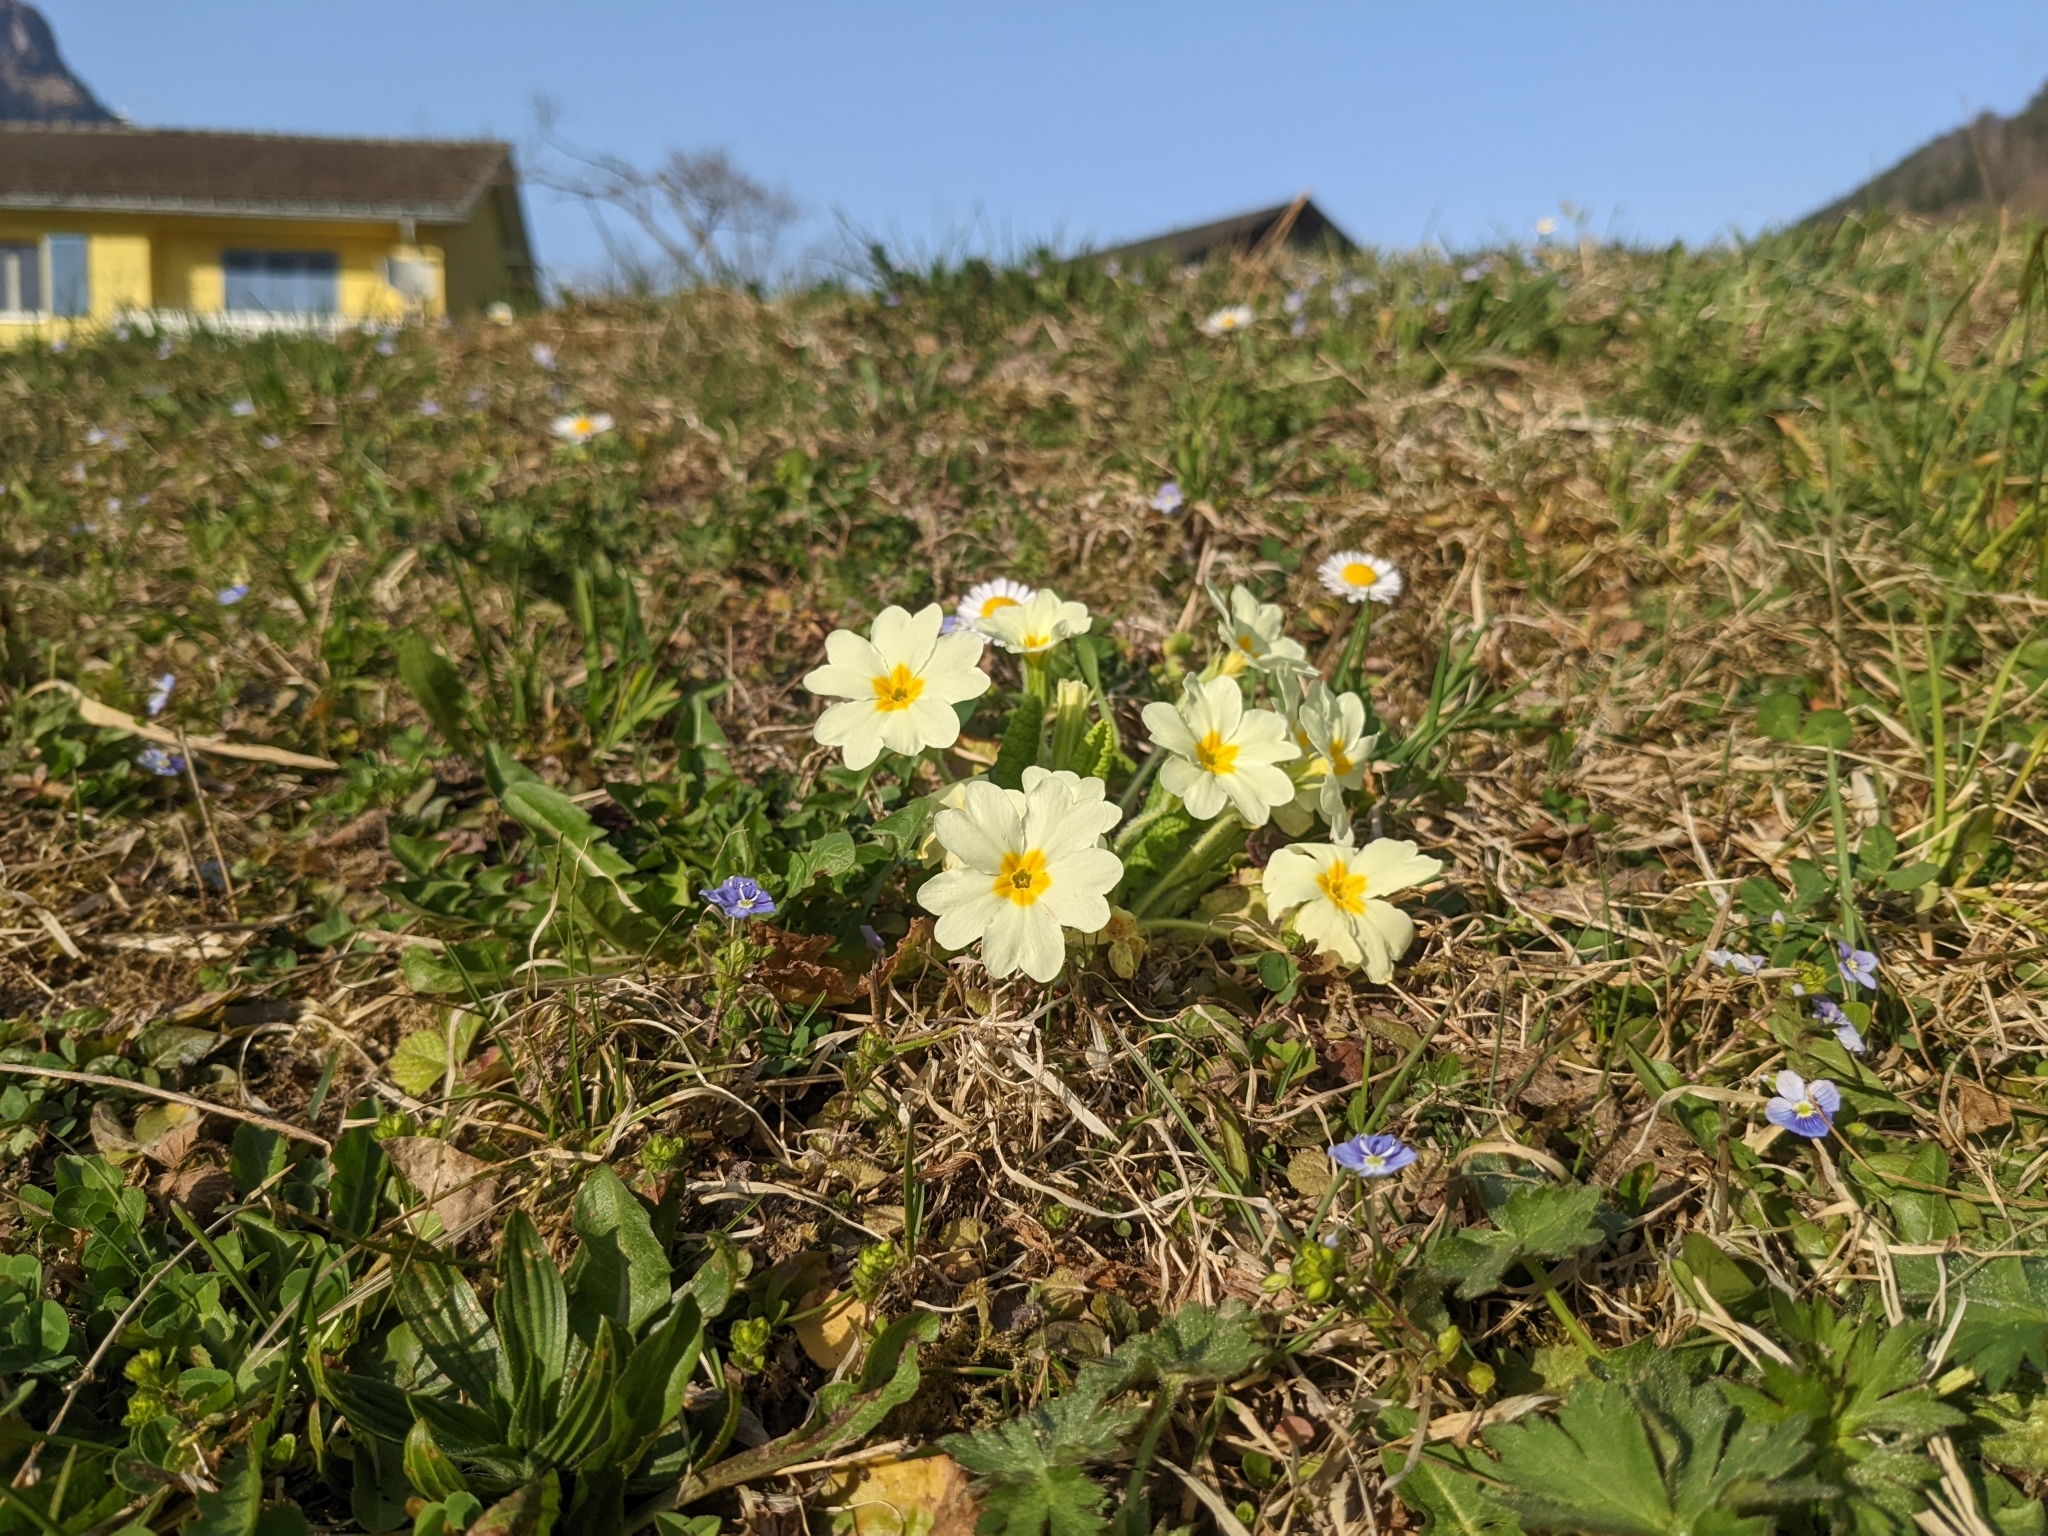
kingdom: Plantae
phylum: Tracheophyta
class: Magnoliopsida
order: Ericales
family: Primulaceae
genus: Primula
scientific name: Primula vulgaris
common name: Primrose
